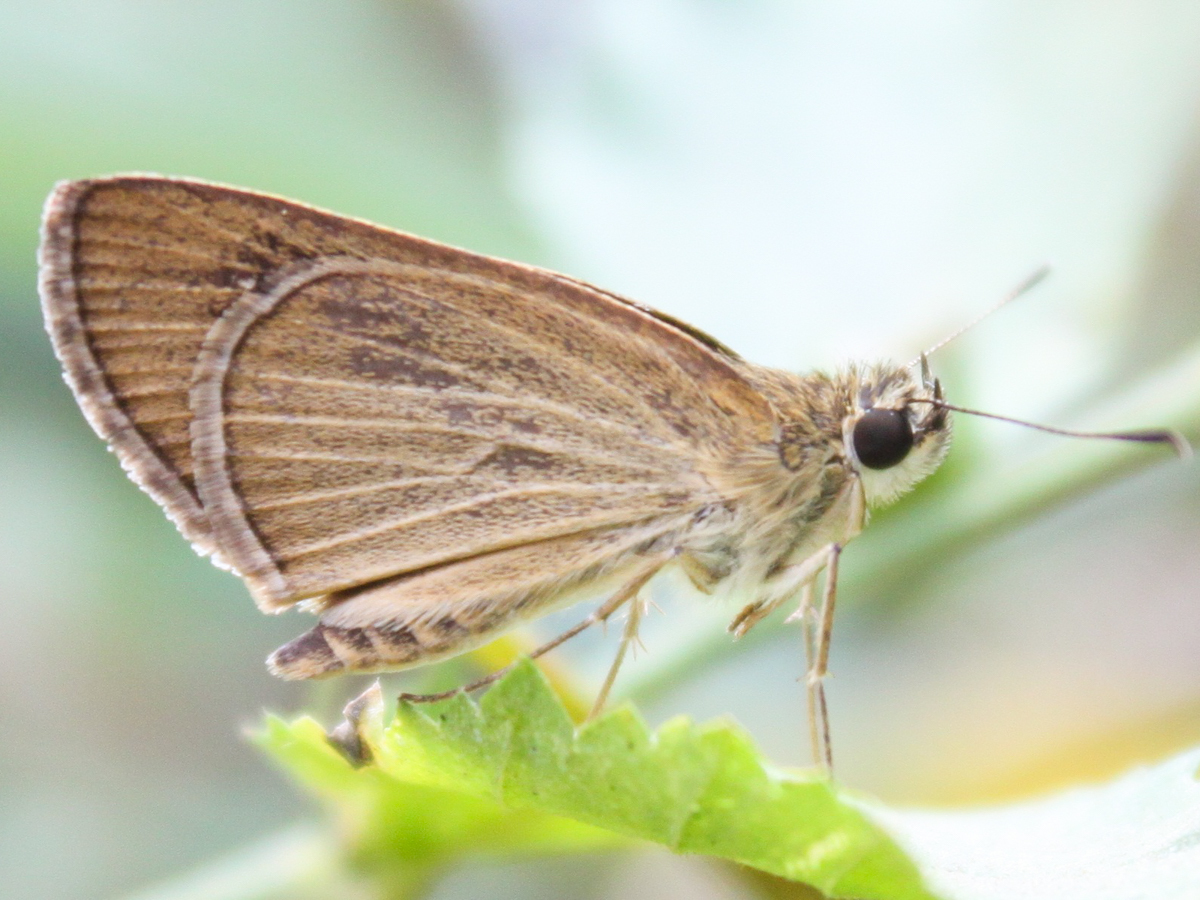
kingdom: Animalia
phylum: Arthropoda
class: Insecta
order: Lepidoptera
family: Hesperiidae
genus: Suada
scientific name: Suada swerga
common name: Grass bob
